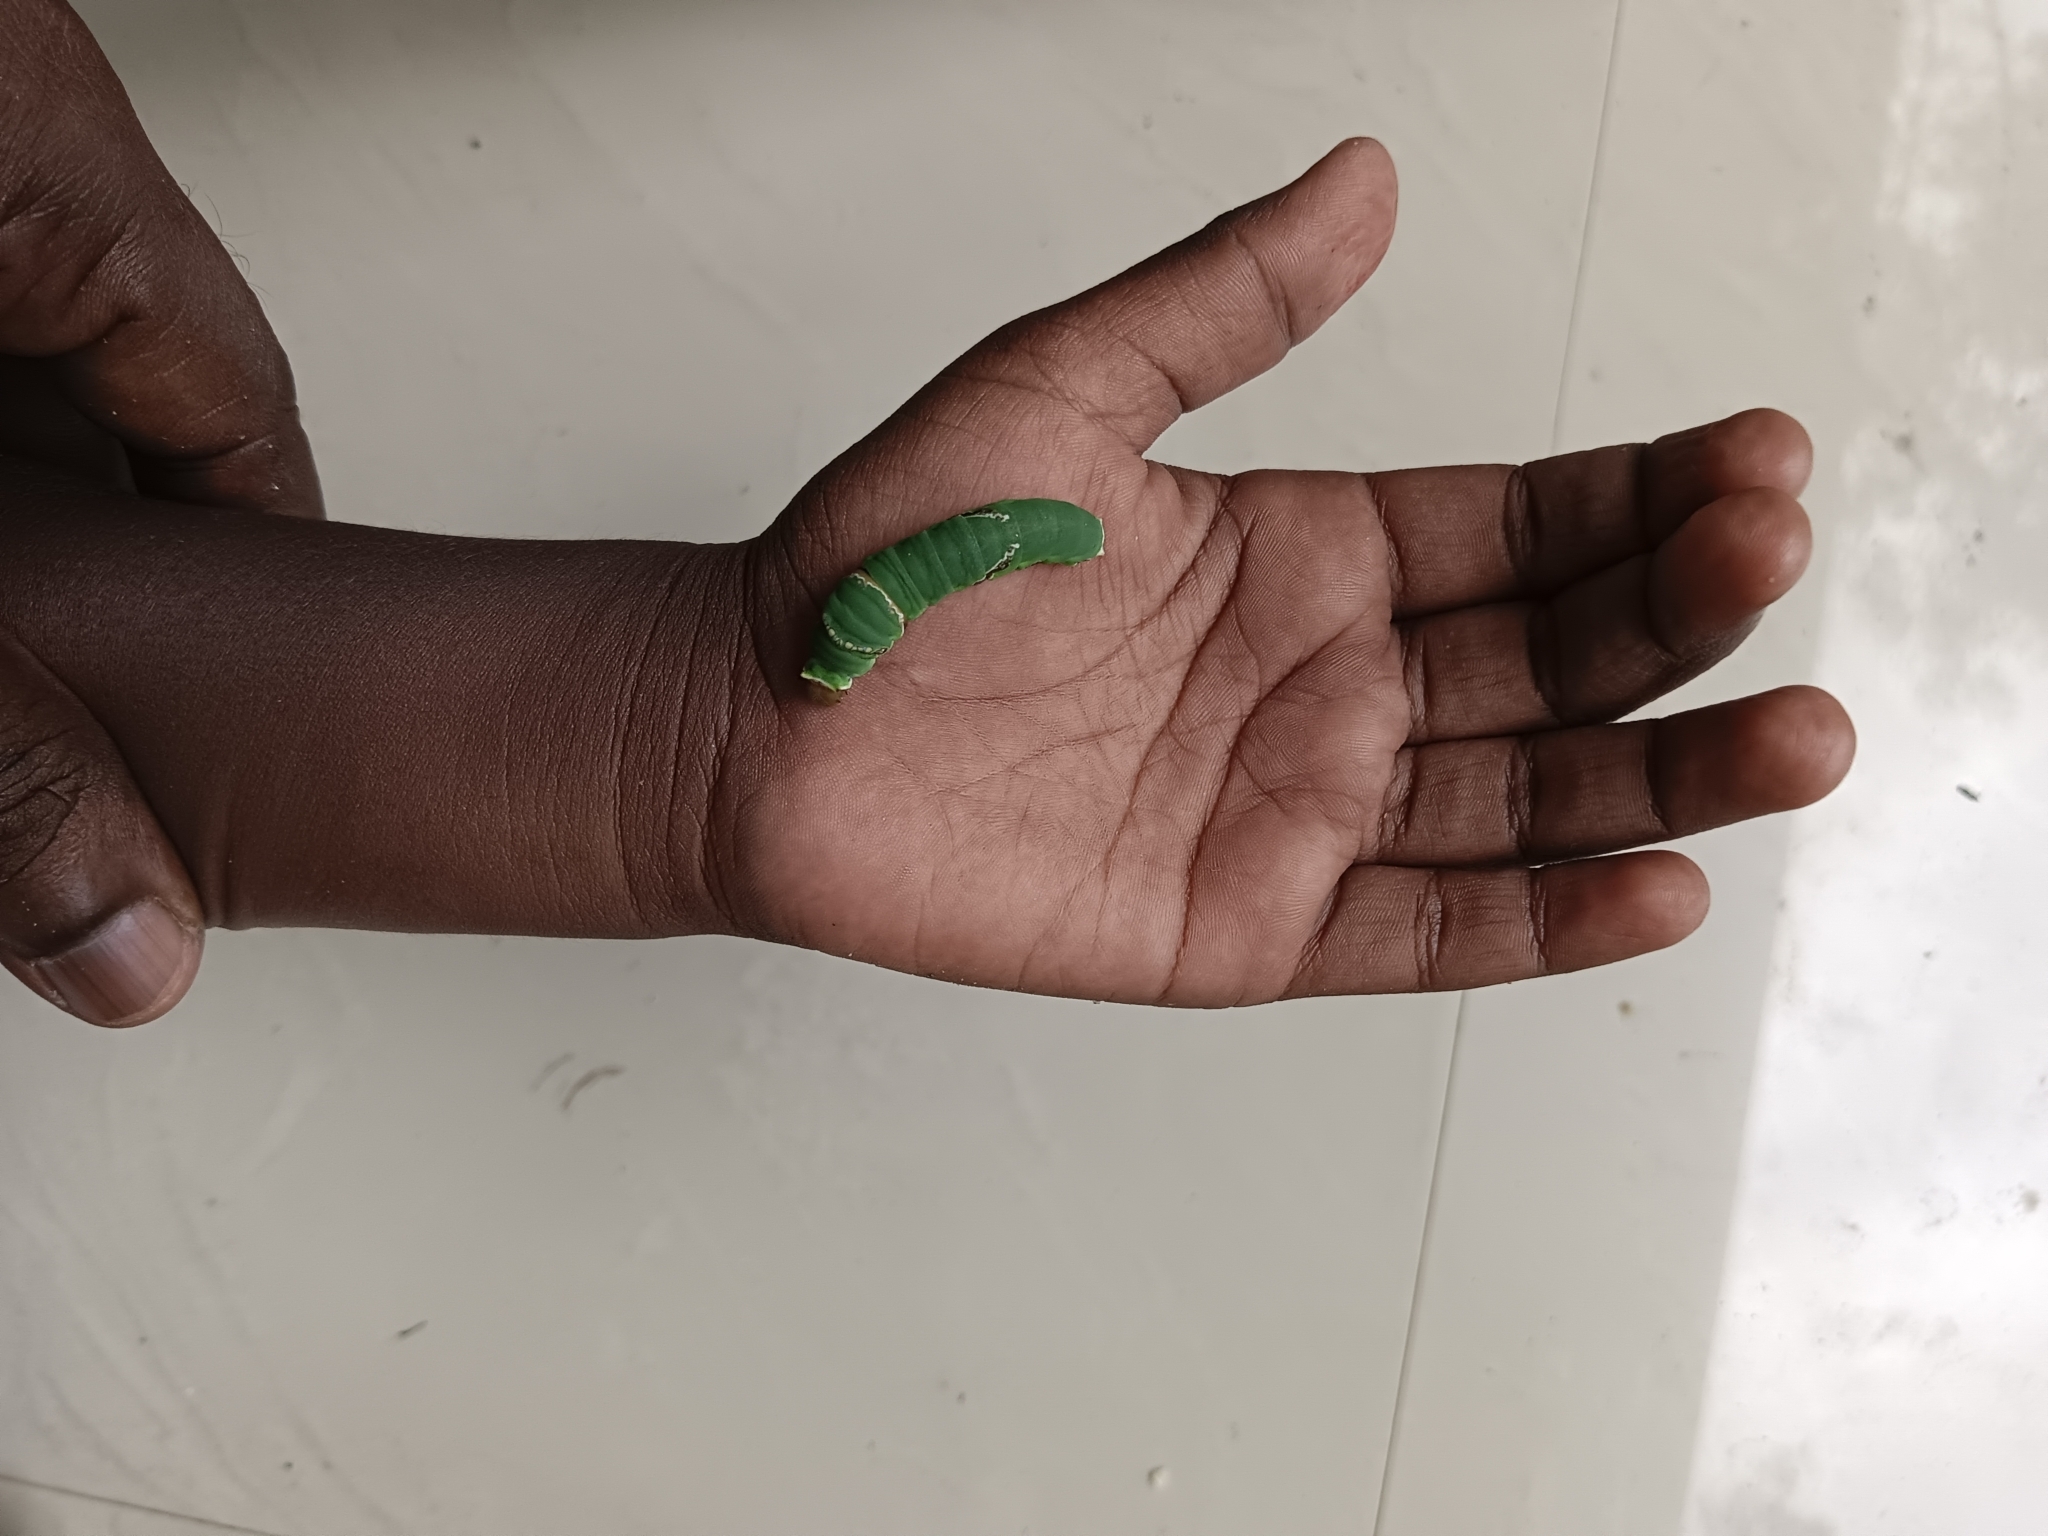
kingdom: Animalia
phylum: Arthropoda
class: Insecta
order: Lepidoptera
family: Papilionidae
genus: Papilio
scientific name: Papilio polytes
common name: Common mormon
